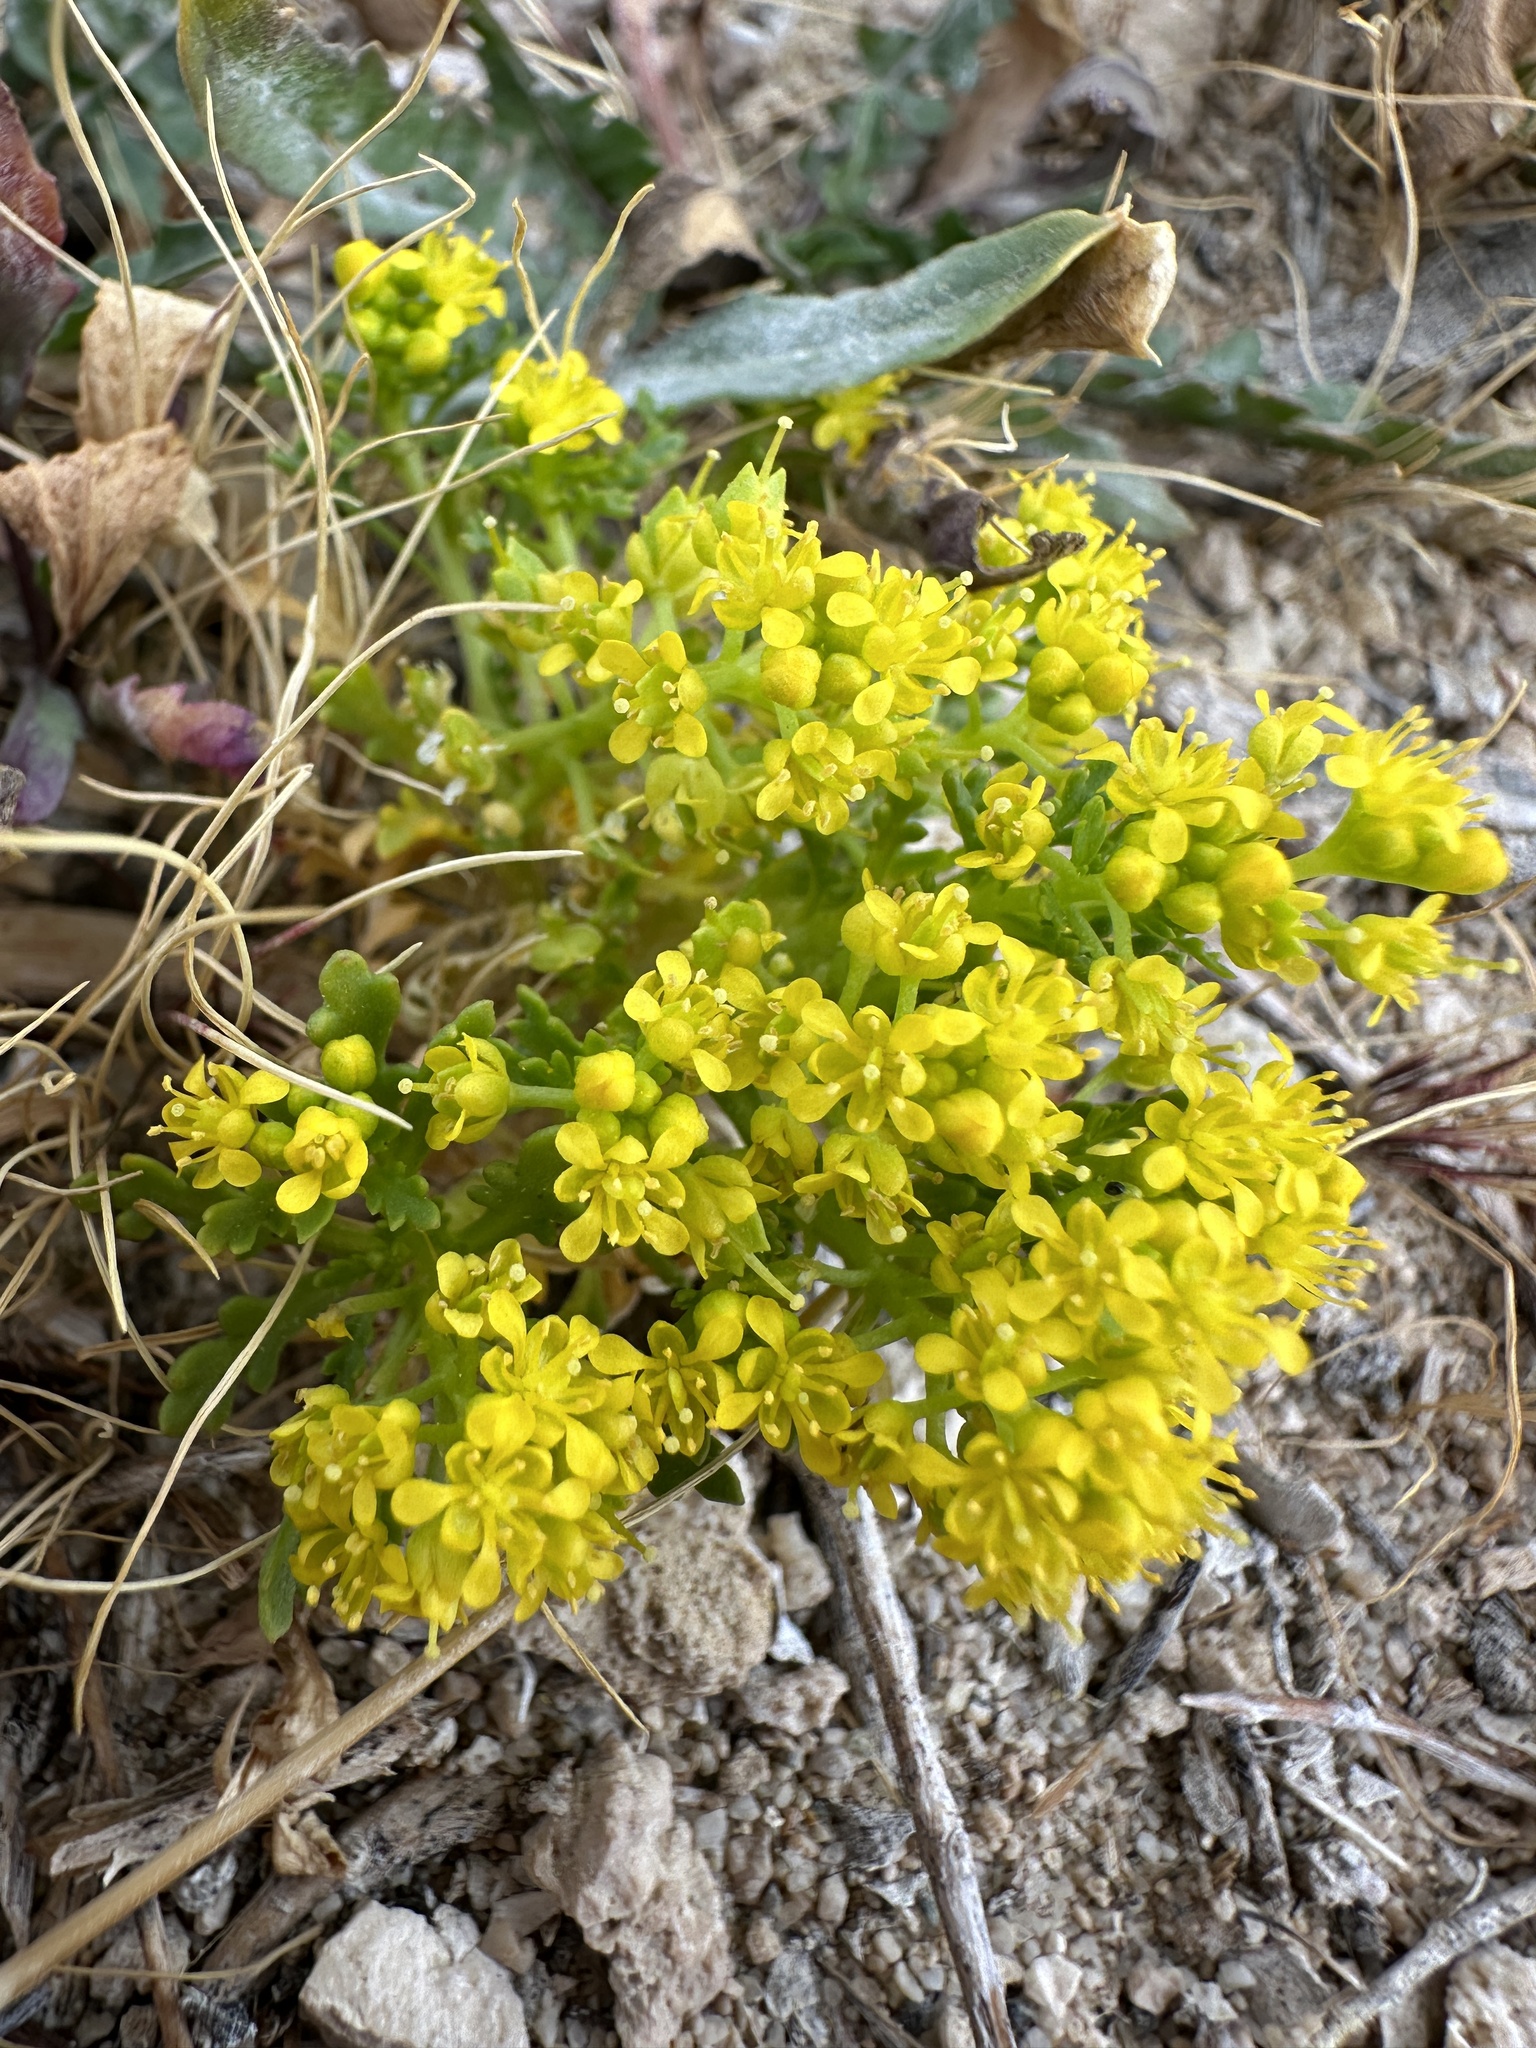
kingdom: Plantae
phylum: Tracheophyta
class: Magnoliopsida
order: Brassicales
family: Brassicaceae
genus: Lepidium
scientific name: Lepidium flavum
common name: Yellow pepperwort
